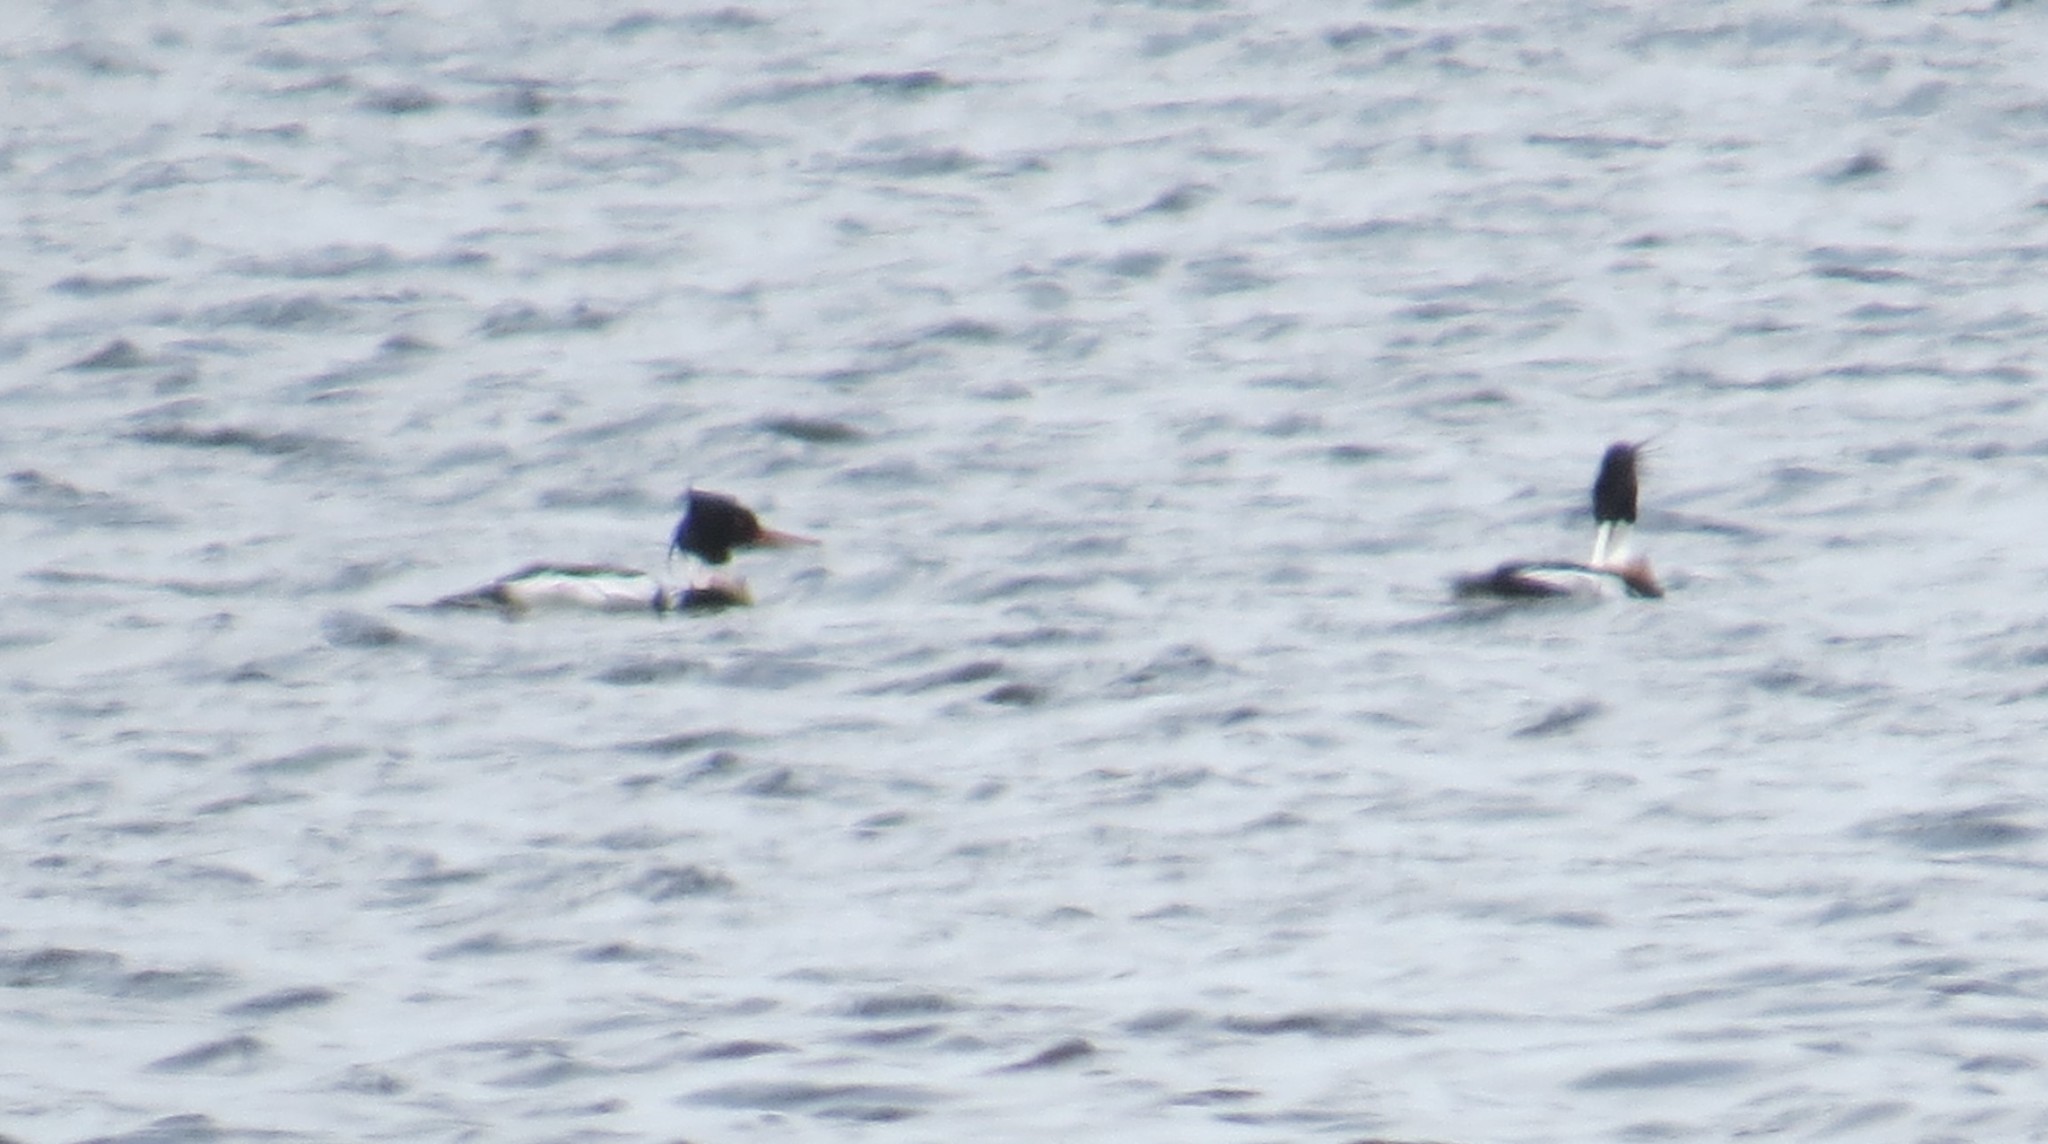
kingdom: Animalia
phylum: Chordata
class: Aves
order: Anseriformes
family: Anatidae
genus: Mergus
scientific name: Mergus serrator
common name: Red-breasted merganser
